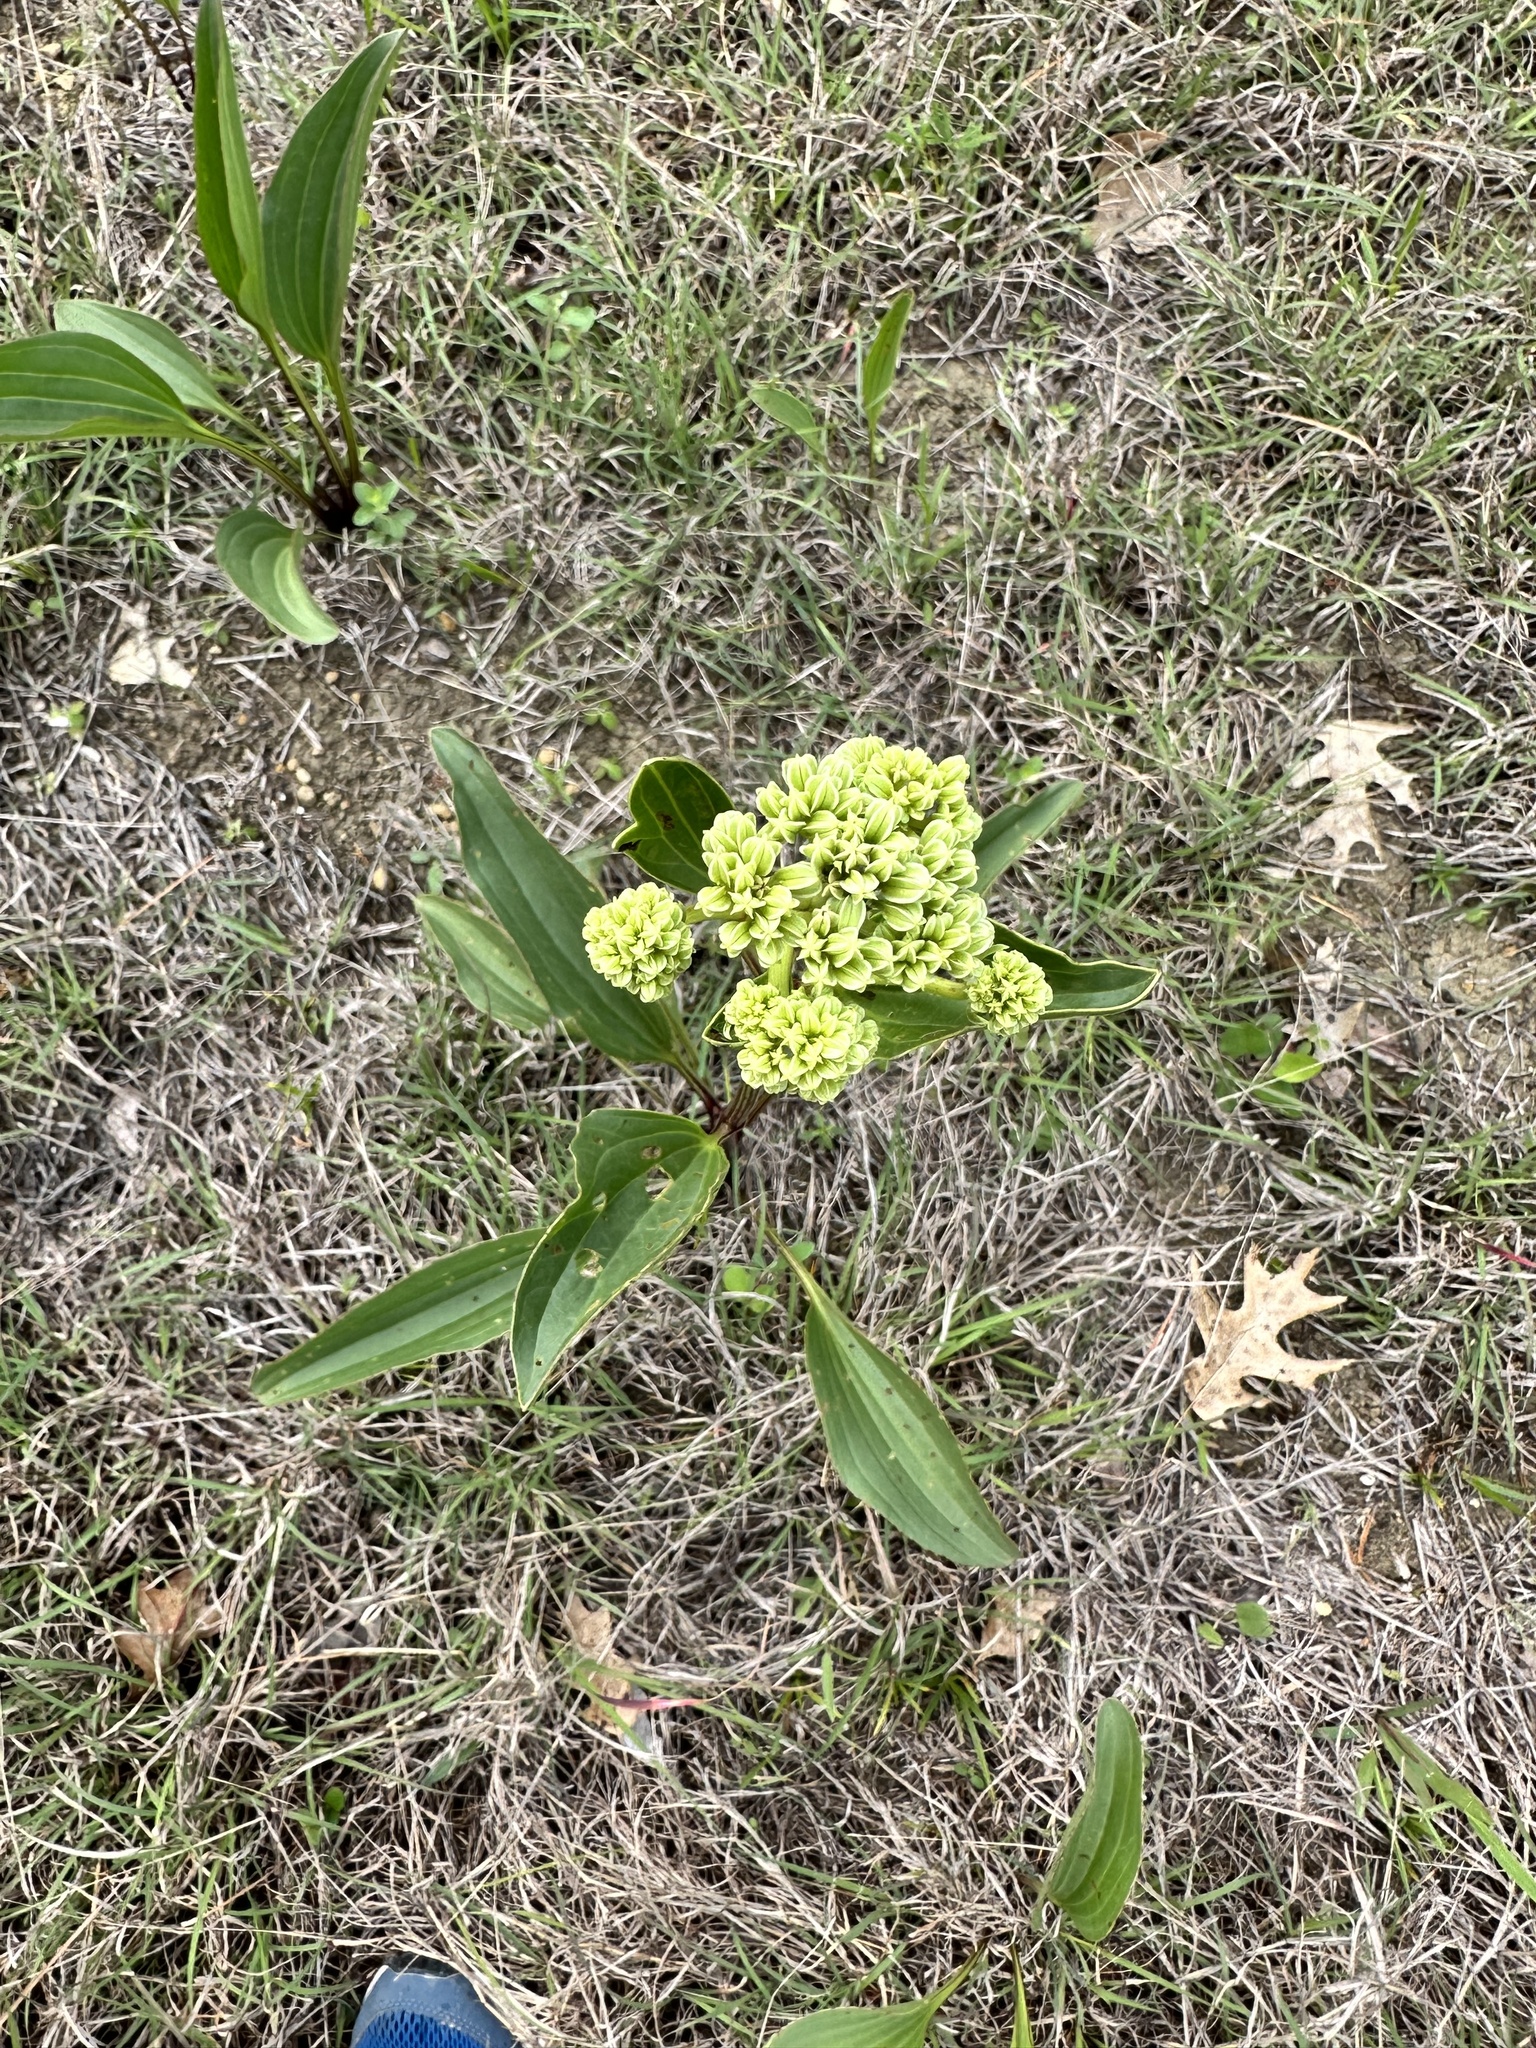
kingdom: Plantae
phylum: Tracheophyta
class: Magnoliopsida
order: Asterales
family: Asteraceae
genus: Arnoglossum
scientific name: Arnoglossum plantagineum
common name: Groove-stemmed indian-plantain
